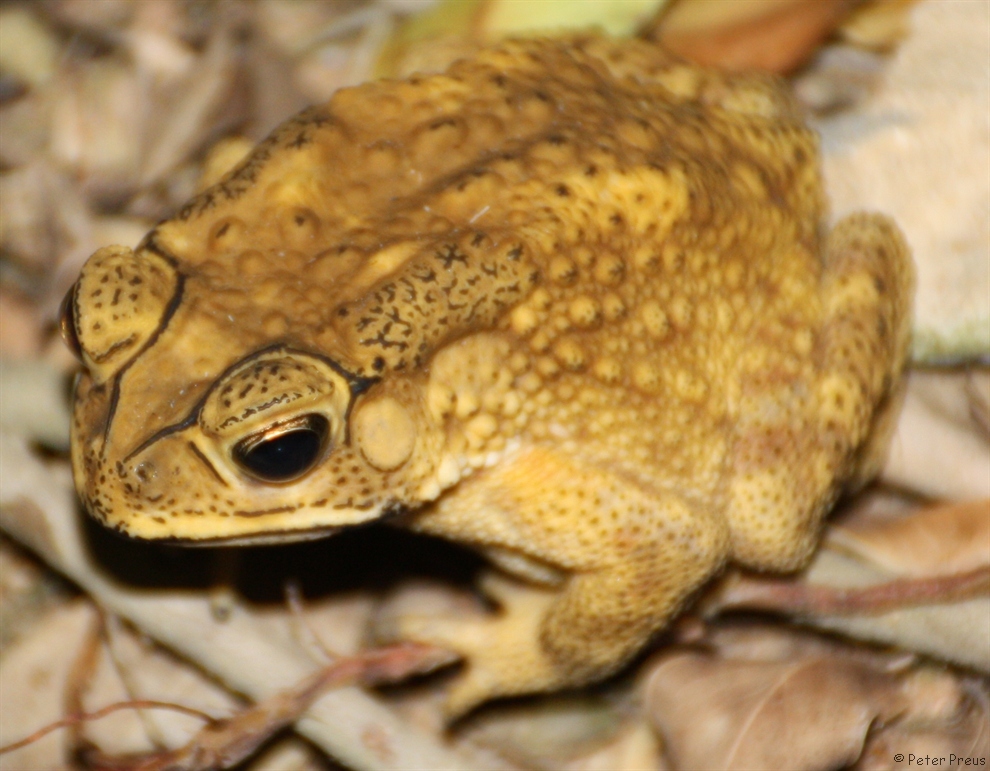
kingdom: Animalia
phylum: Chordata
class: Amphibia
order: Anura
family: Bufonidae
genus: Duttaphrynus
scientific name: Duttaphrynus melanostictus
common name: Common sunda toad
